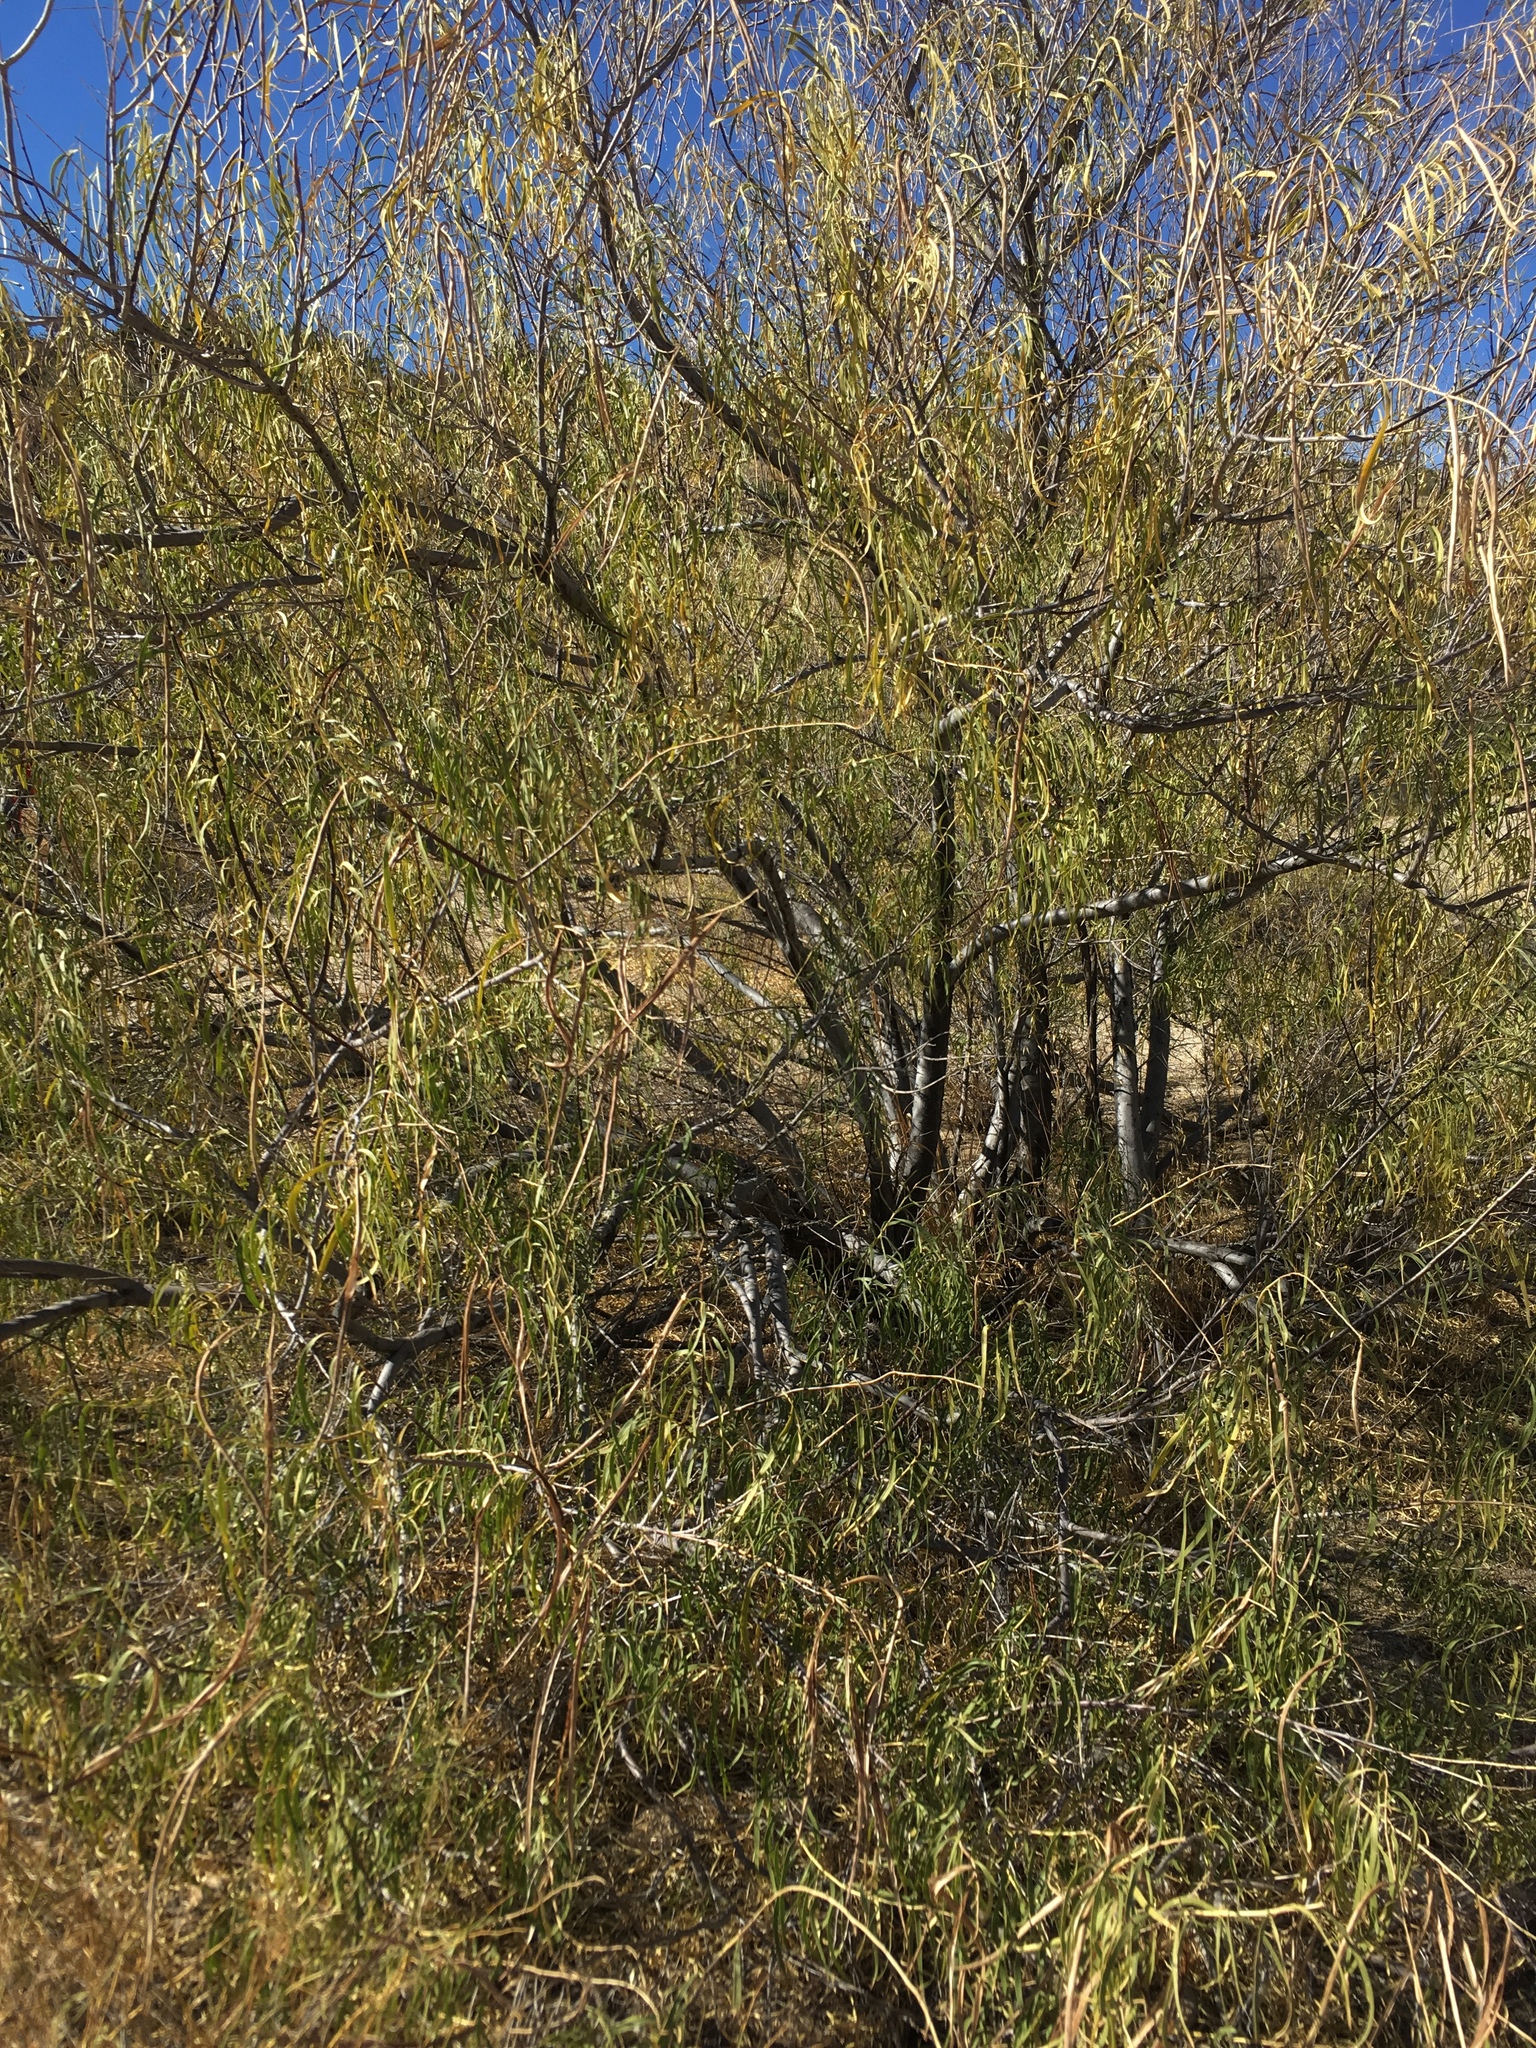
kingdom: Plantae
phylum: Tracheophyta
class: Magnoliopsida
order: Lamiales
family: Bignoniaceae
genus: Chilopsis
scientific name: Chilopsis linearis
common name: Desert-willow
